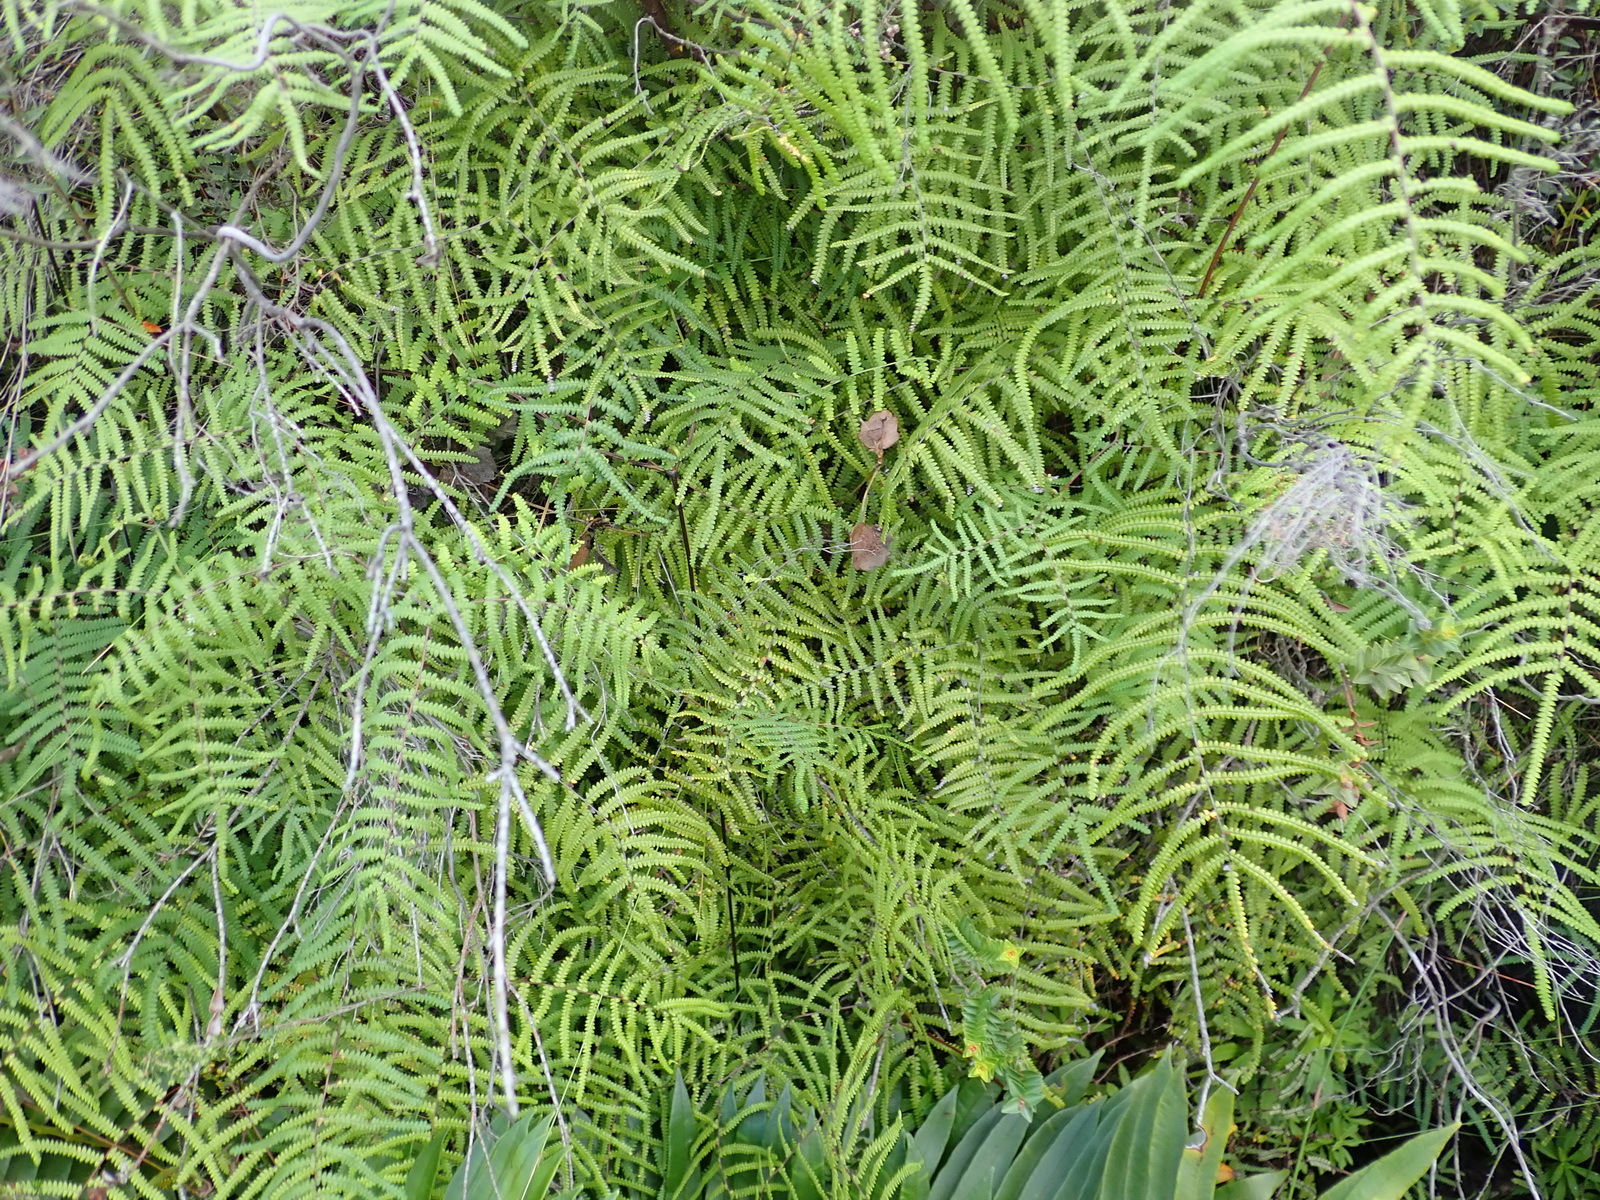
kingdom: Plantae
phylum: Tracheophyta
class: Polypodiopsida
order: Gleicheniales
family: Gleicheniaceae
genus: Gleichenia
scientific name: Gleichenia polypodioides
